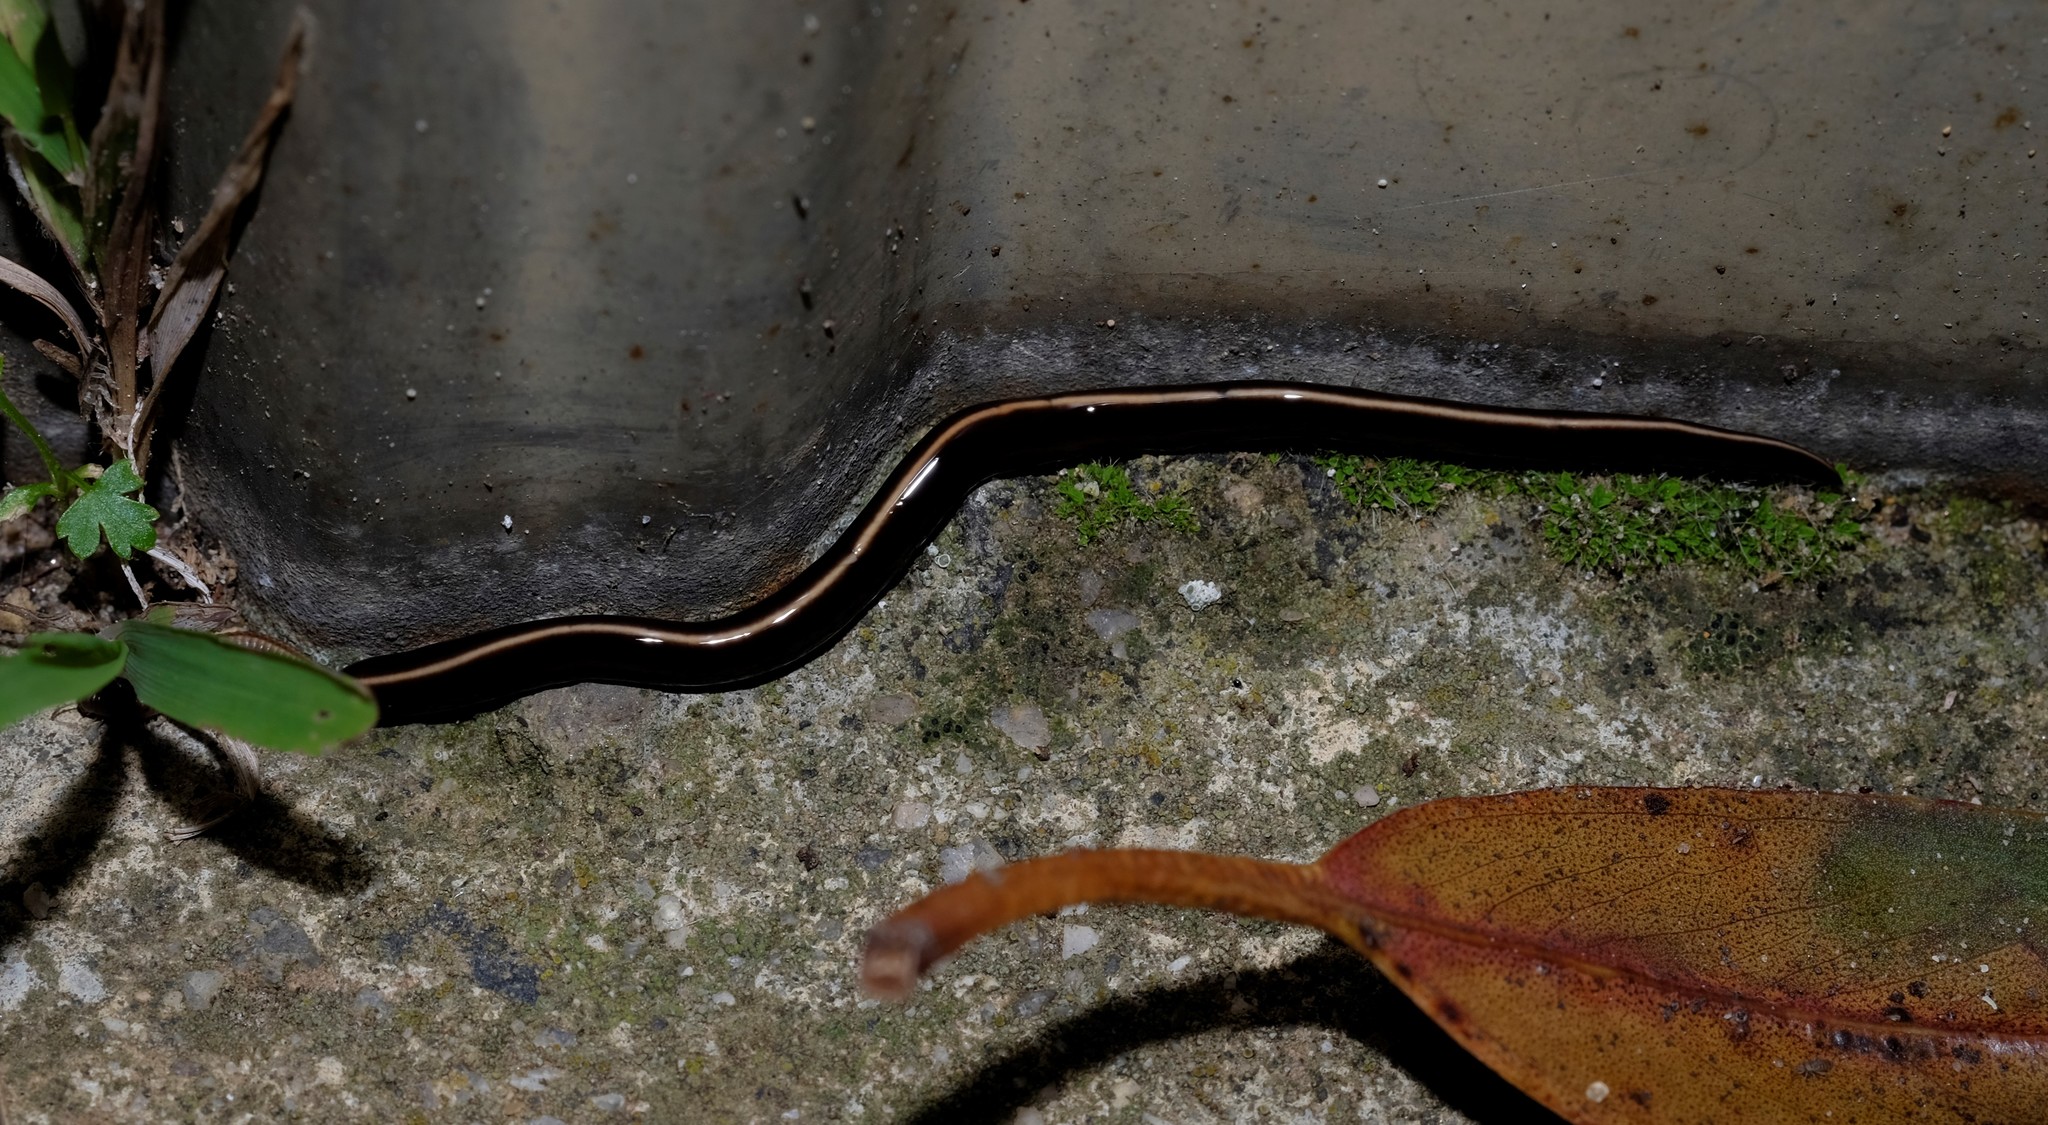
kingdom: Animalia
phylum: Platyhelminthes
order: Tricladida
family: Geoplanidae
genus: Caenoplana
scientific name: Caenoplana coerulea
